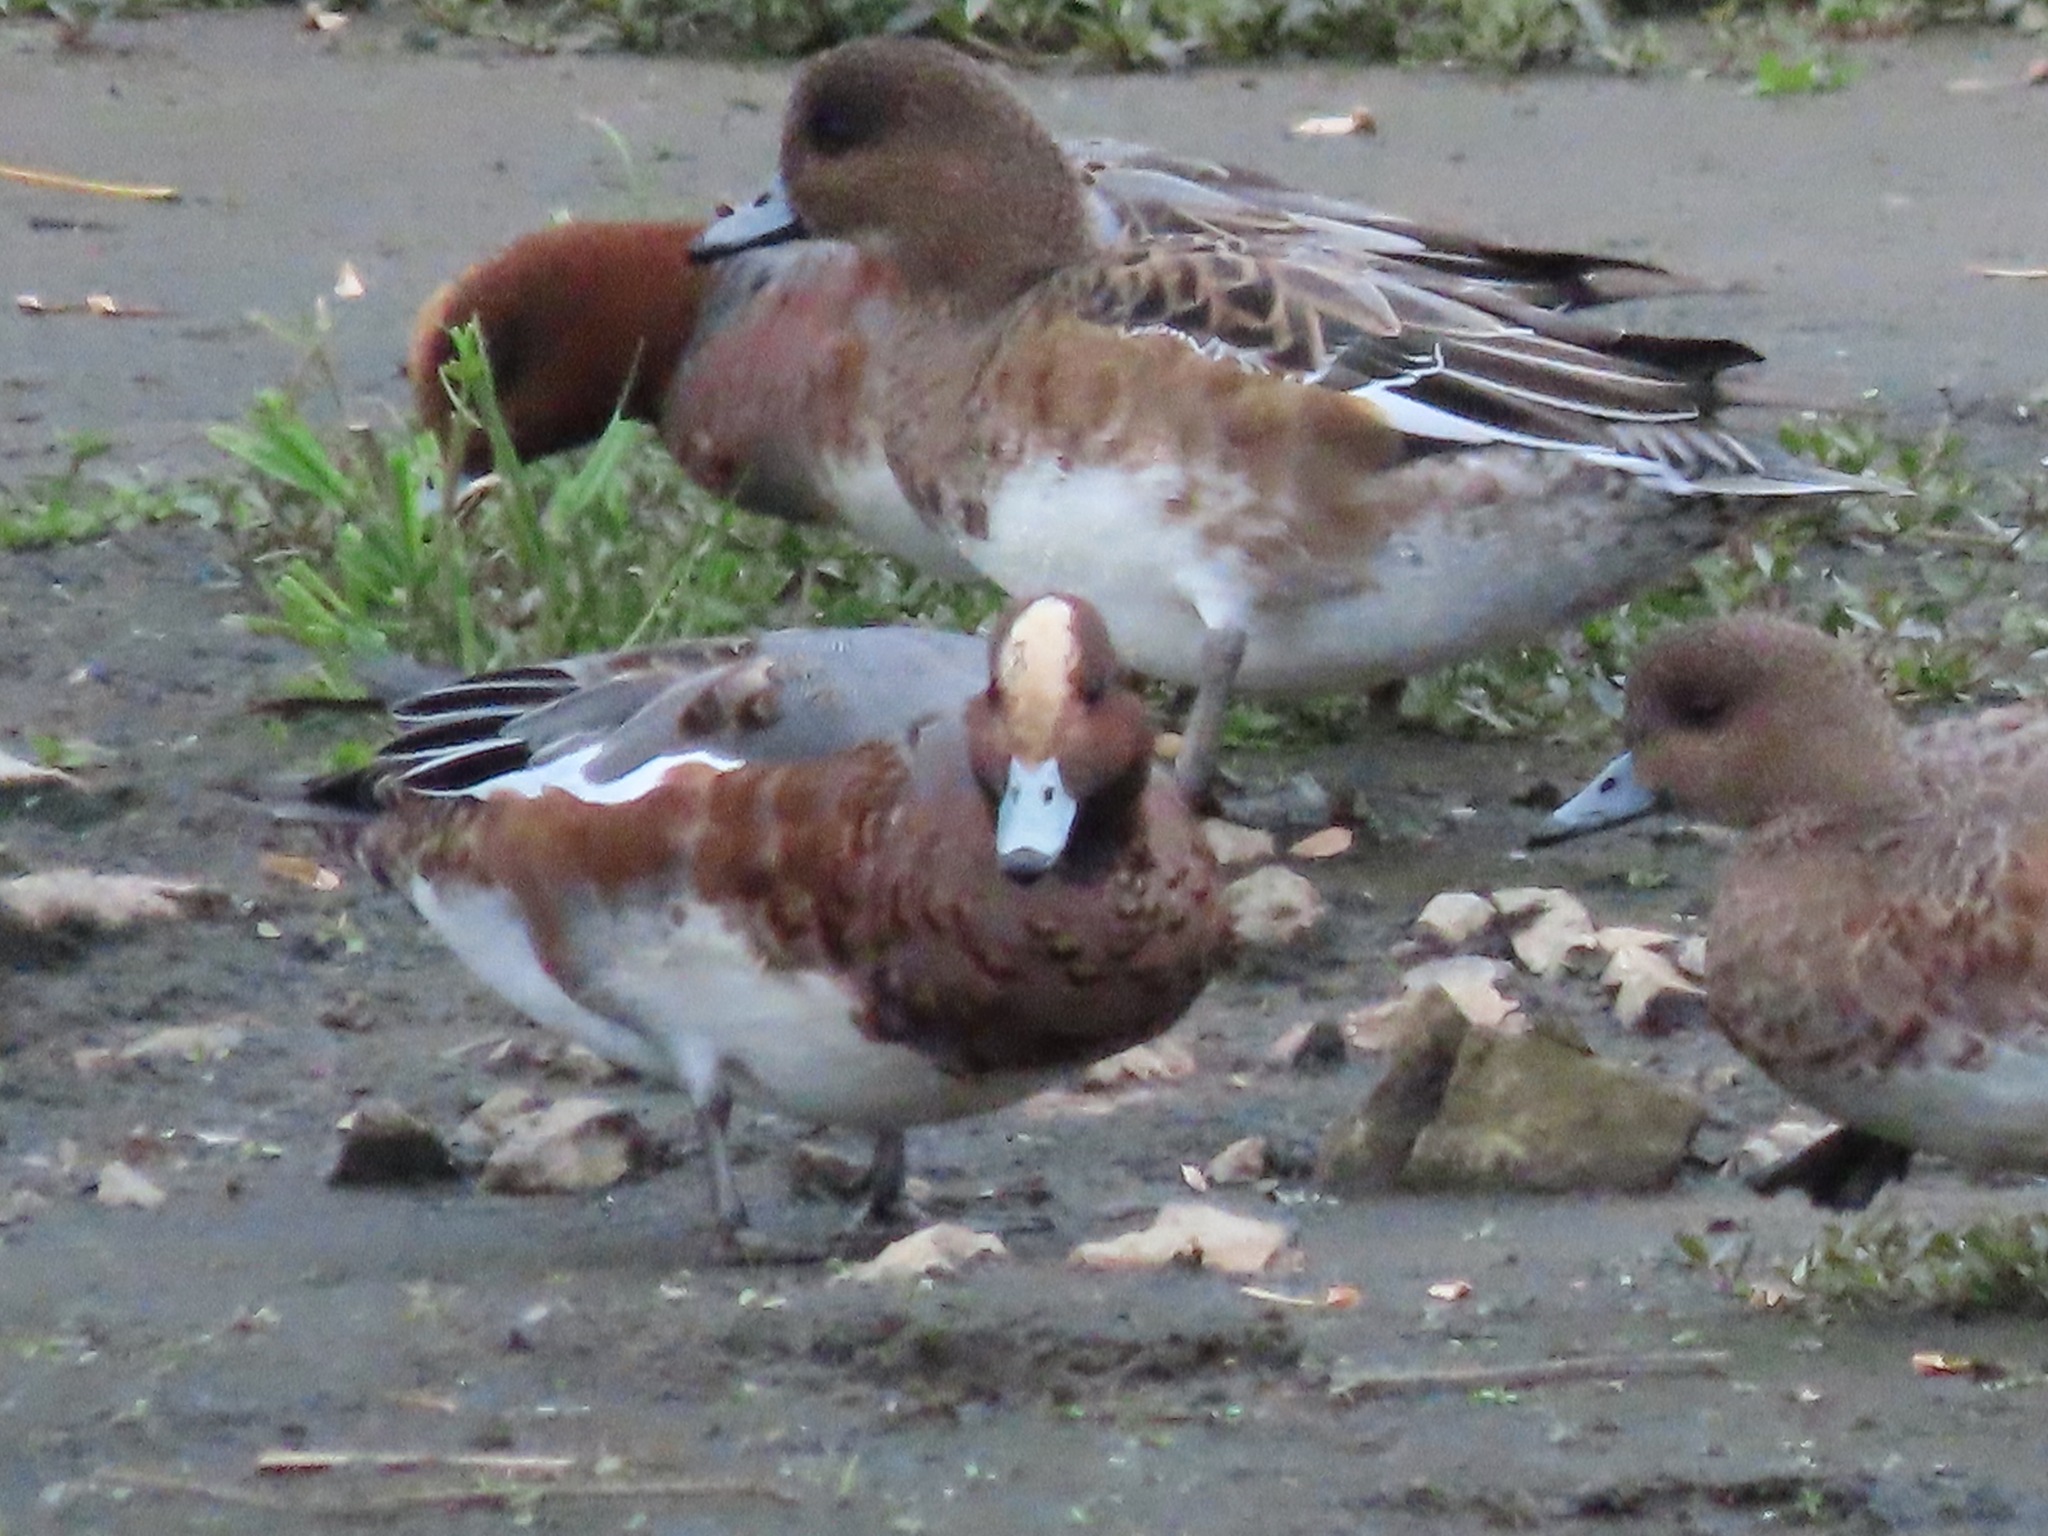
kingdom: Animalia
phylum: Chordata
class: Aves
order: Anseriformes
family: Anatidae
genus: Mareca
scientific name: Mareca penelope
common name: Eurasian wigeon
